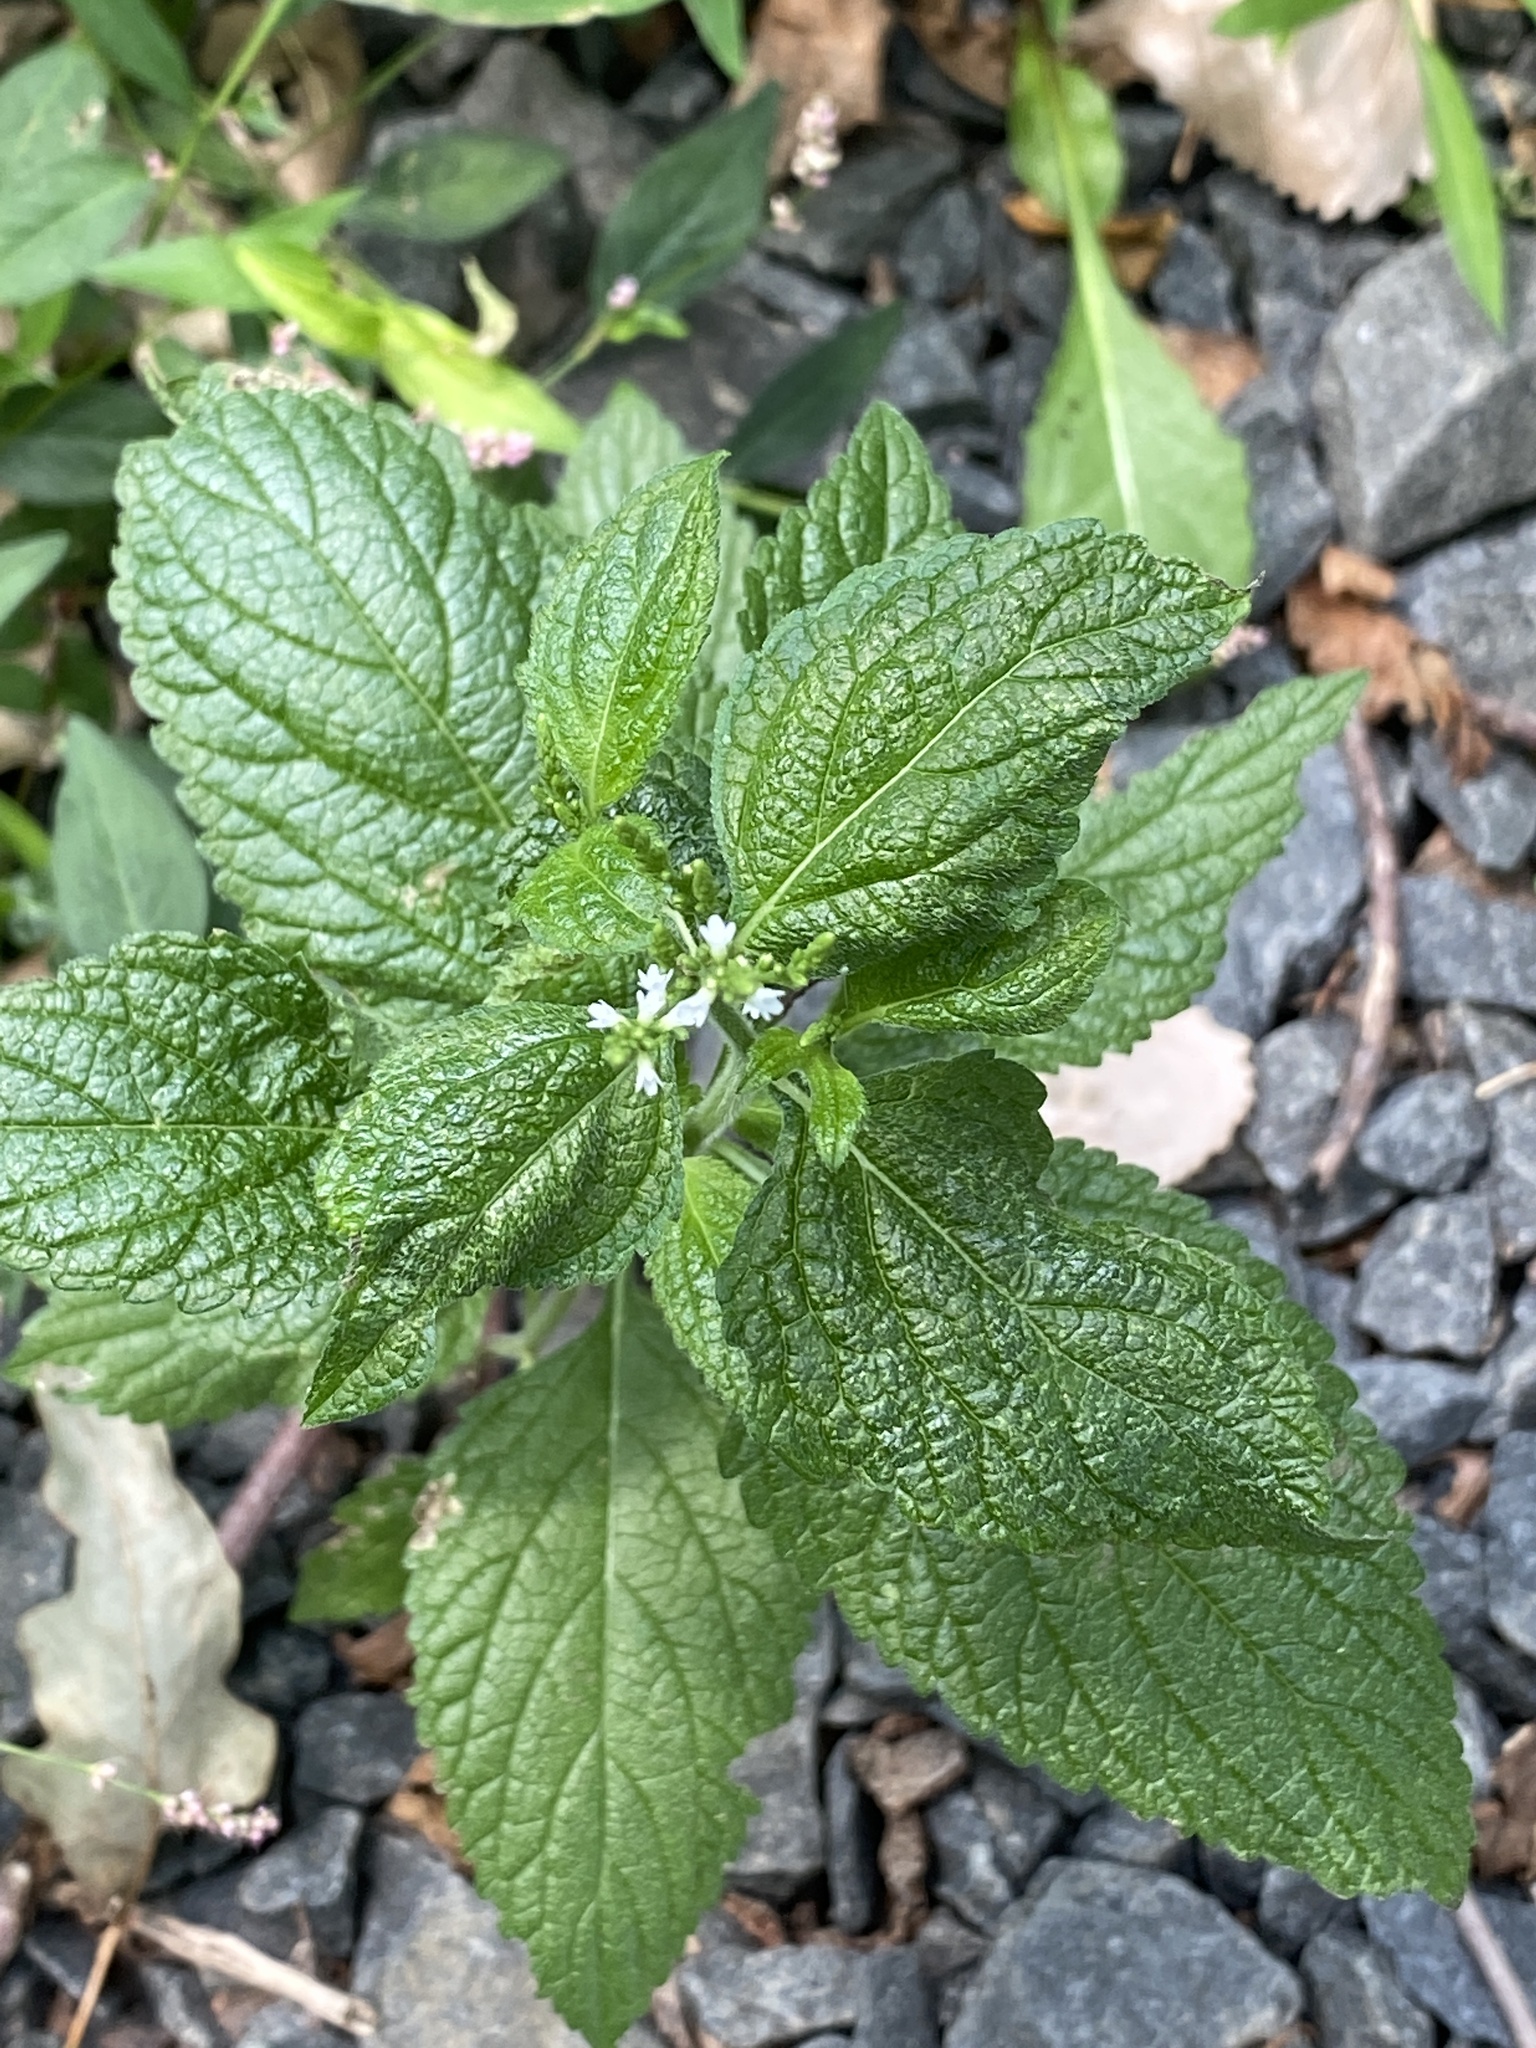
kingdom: Plantae
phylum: Tracheophyta
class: Magnoliopsida
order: Lamiales
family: Verbenaceae
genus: Verbena
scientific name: Verbena urticifolia
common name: Nettle-leaved vervain
